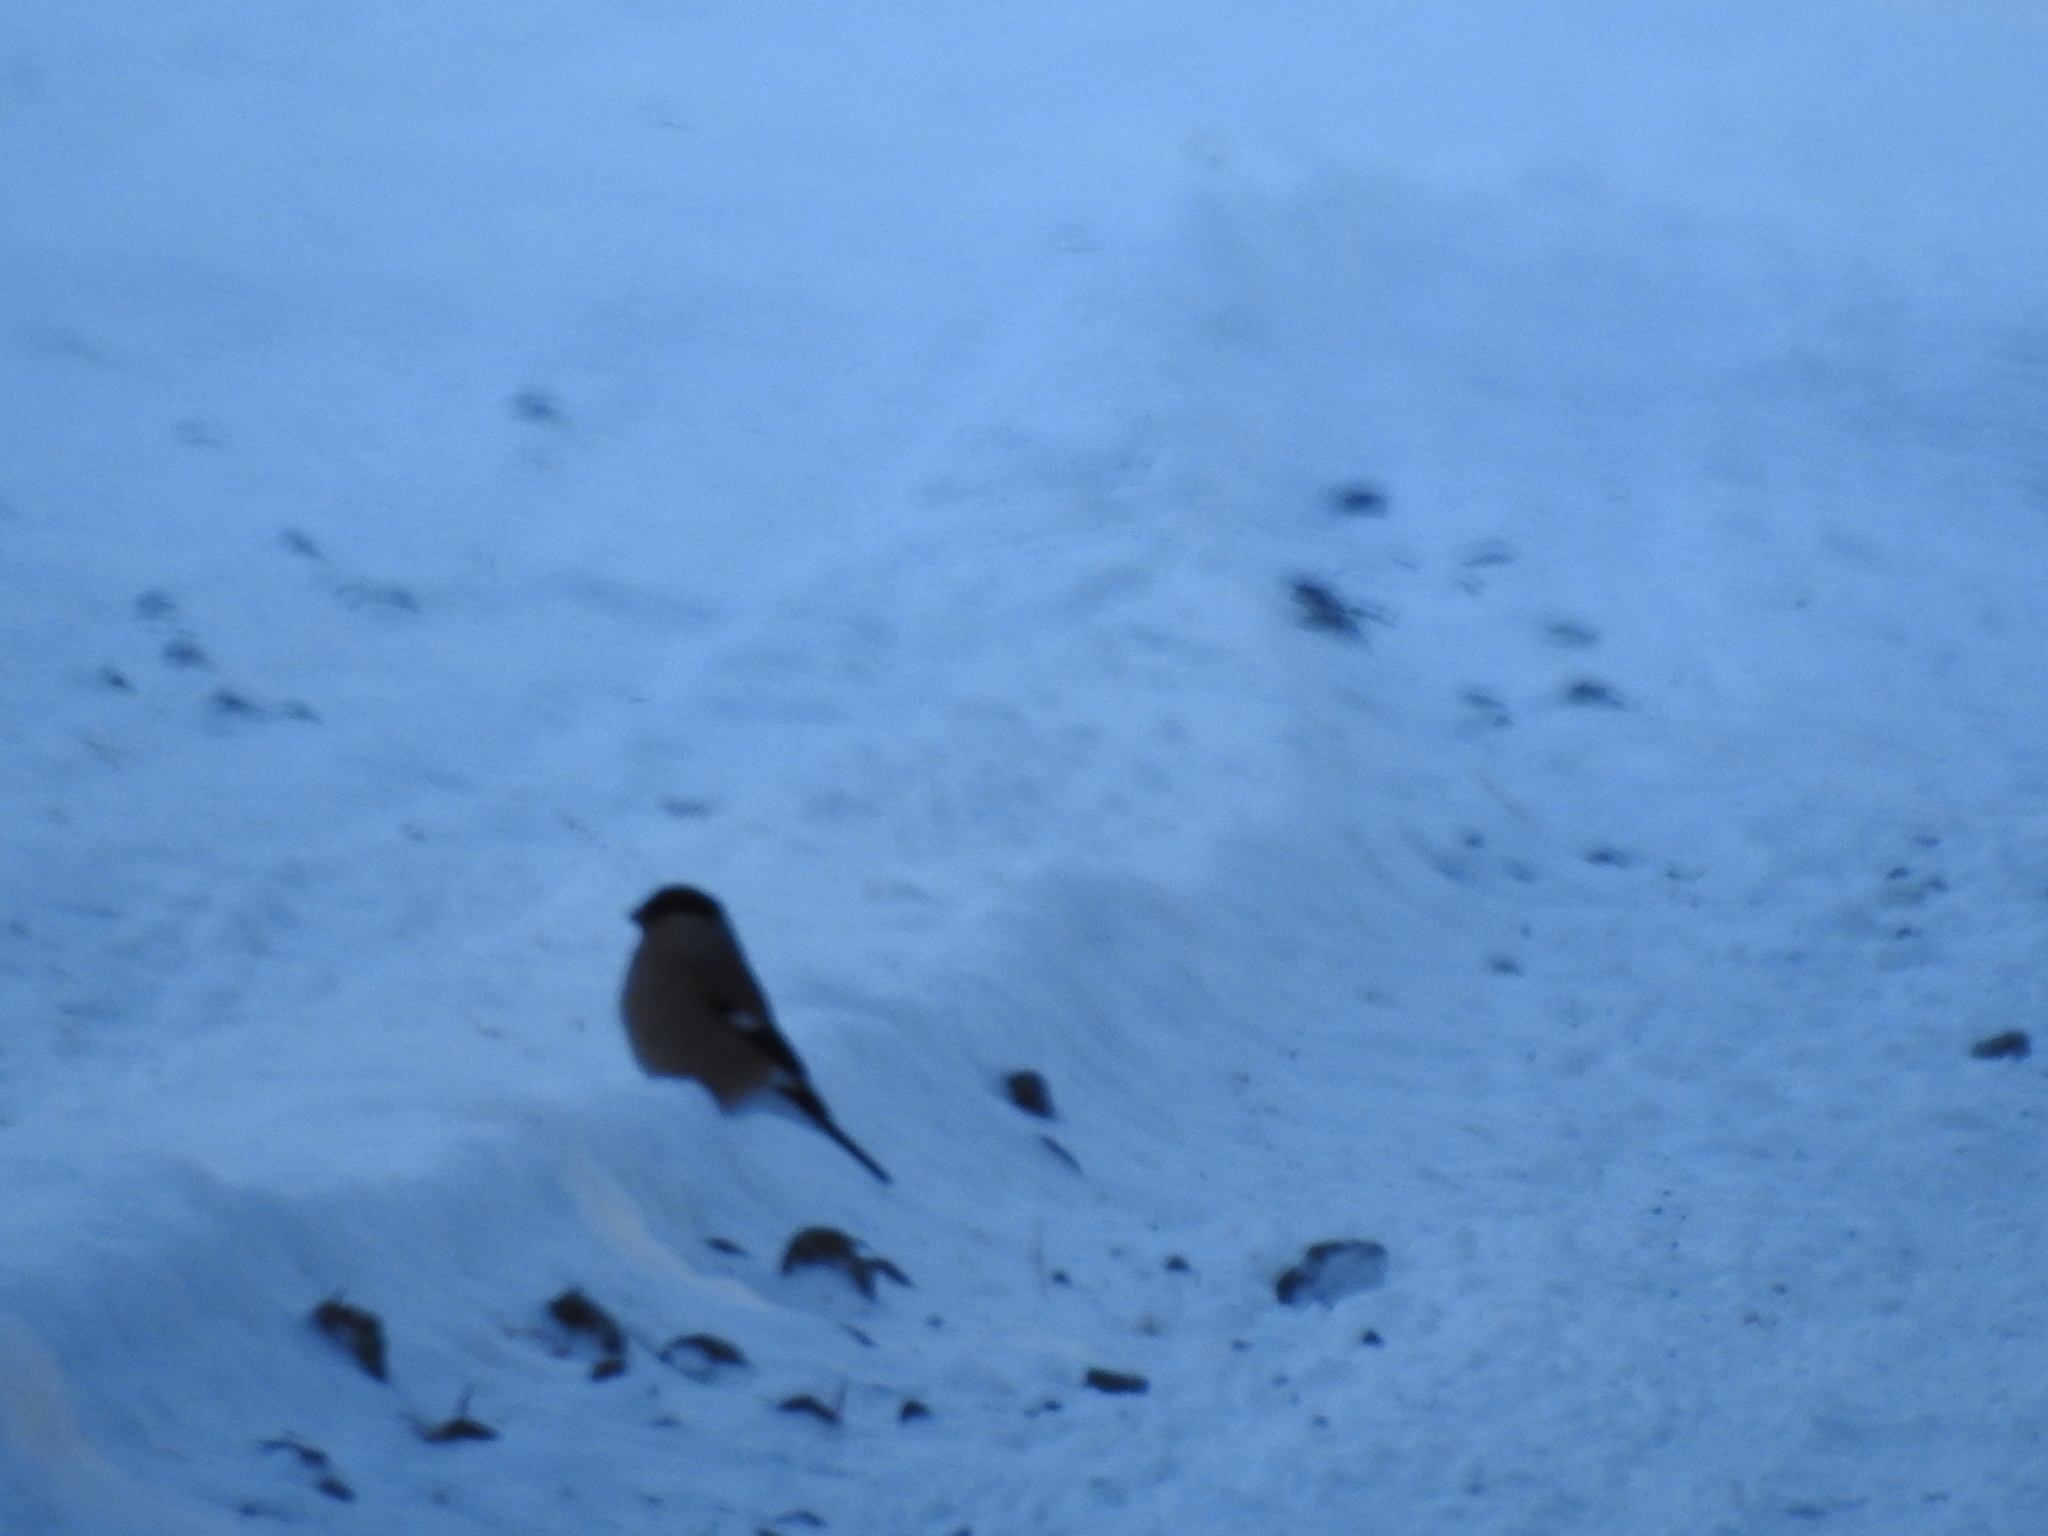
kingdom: Animalia
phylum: Chordata
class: Aves
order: Passeriformes
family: Fringillidae
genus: Pyrrhula
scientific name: Pyrrhula pyrrhula
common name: Eurasian bullfinch
